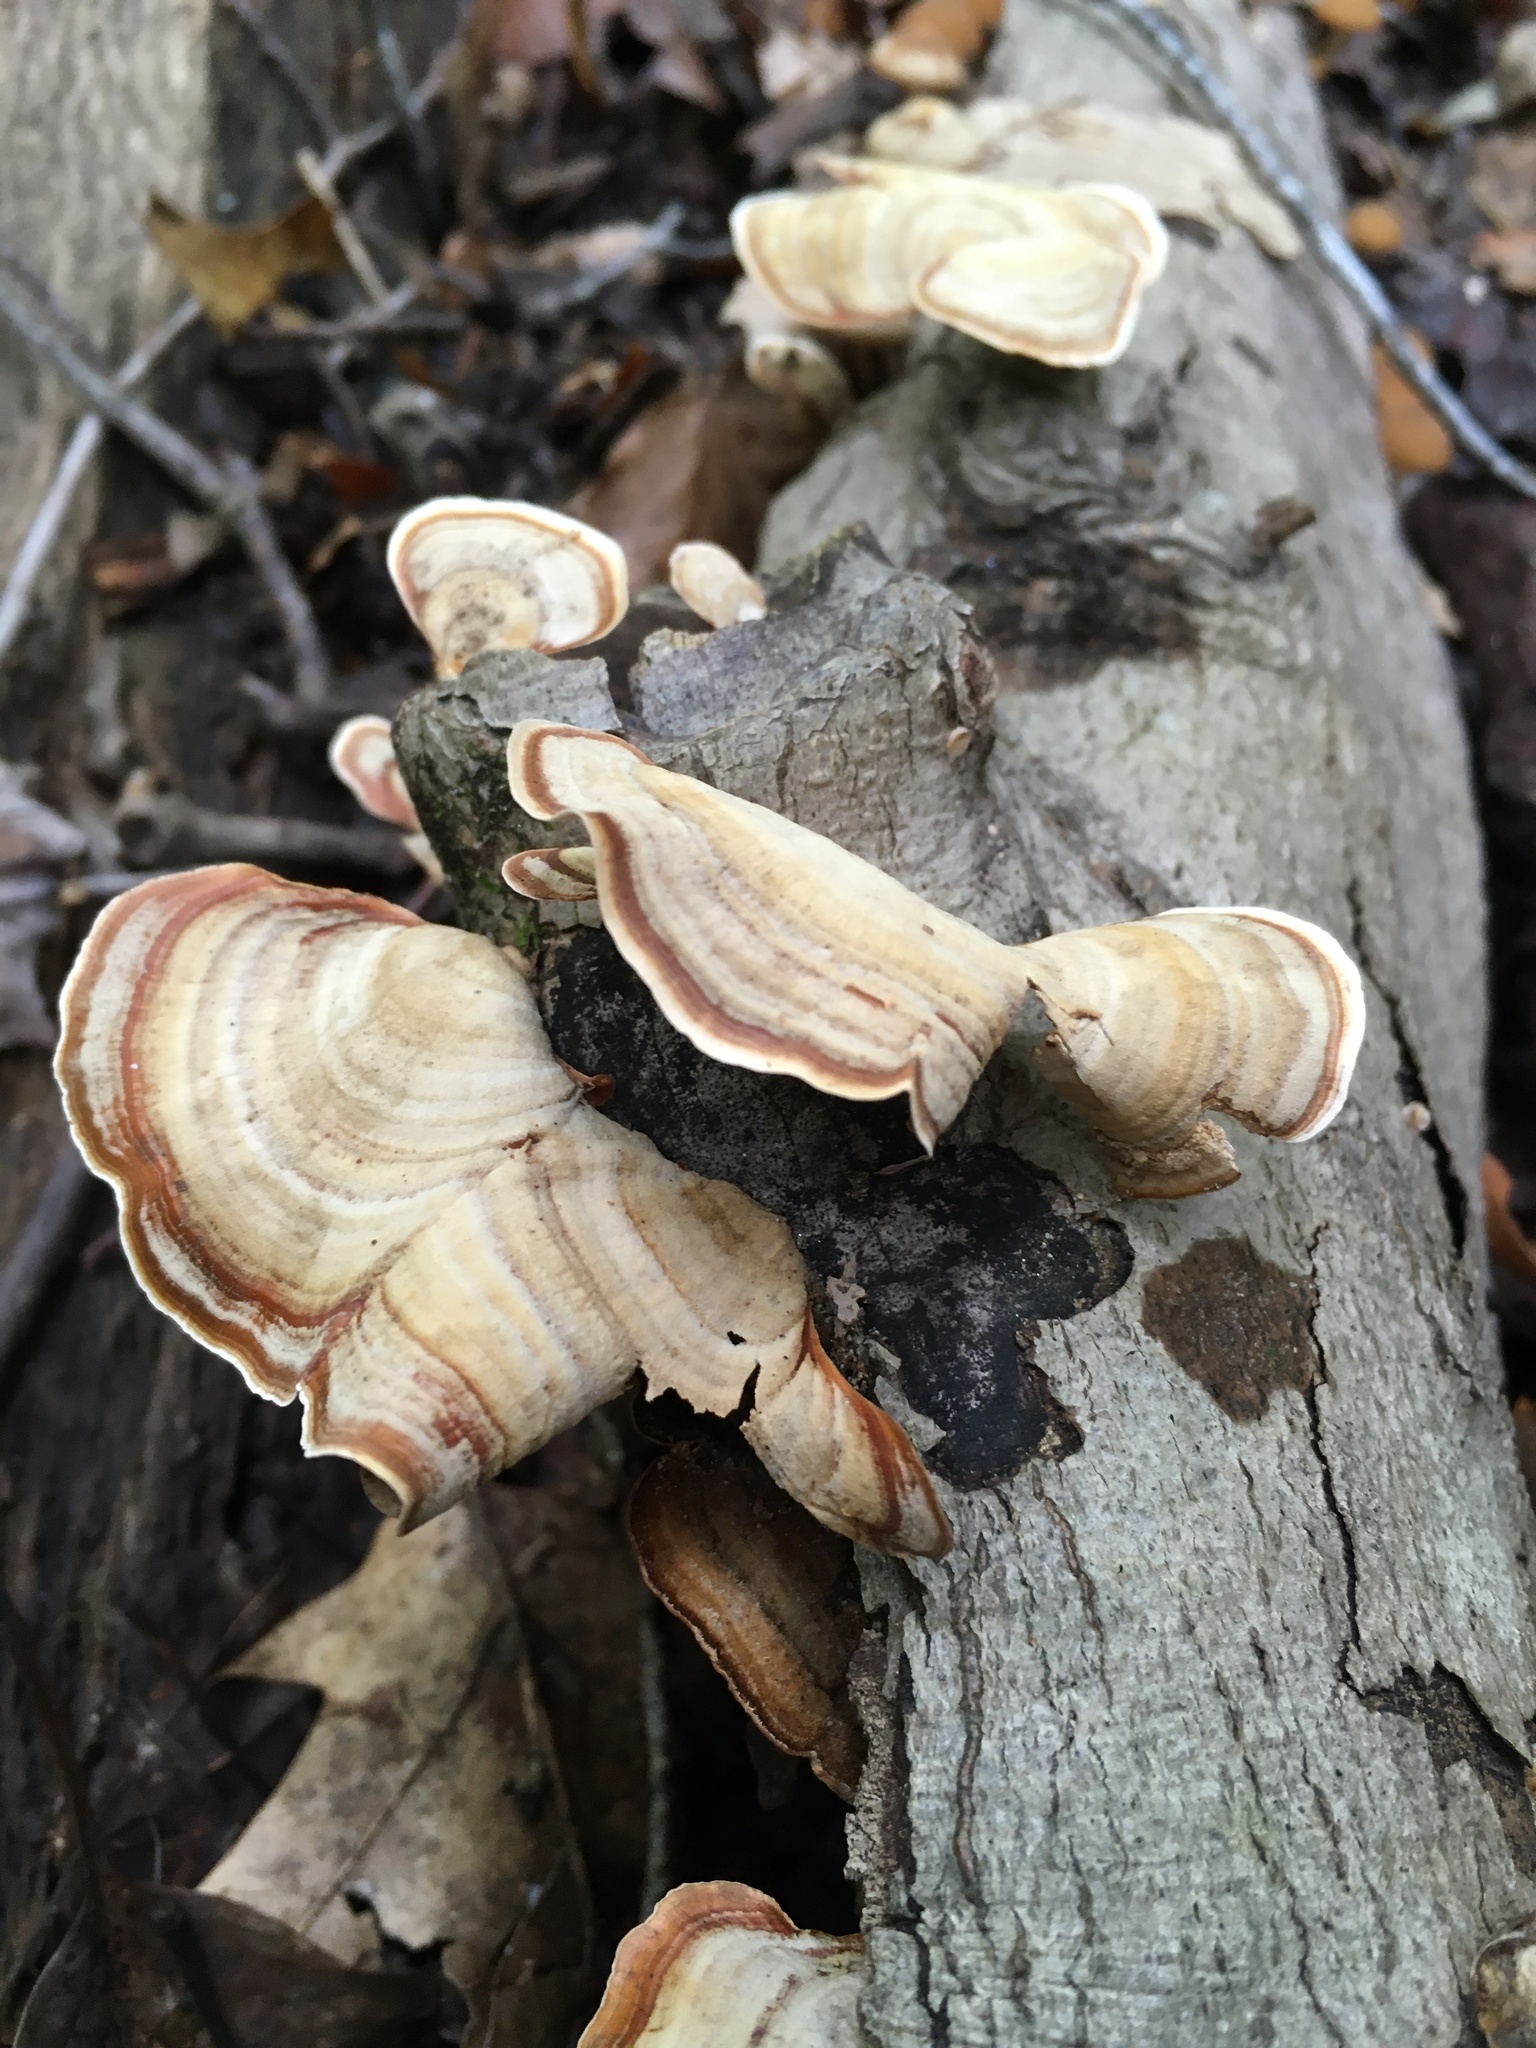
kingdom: Fungi
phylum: Basidiomycota
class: Agaricomycetes
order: Russulales
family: Stereaceae
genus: Stereum
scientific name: Stereum lobatum
